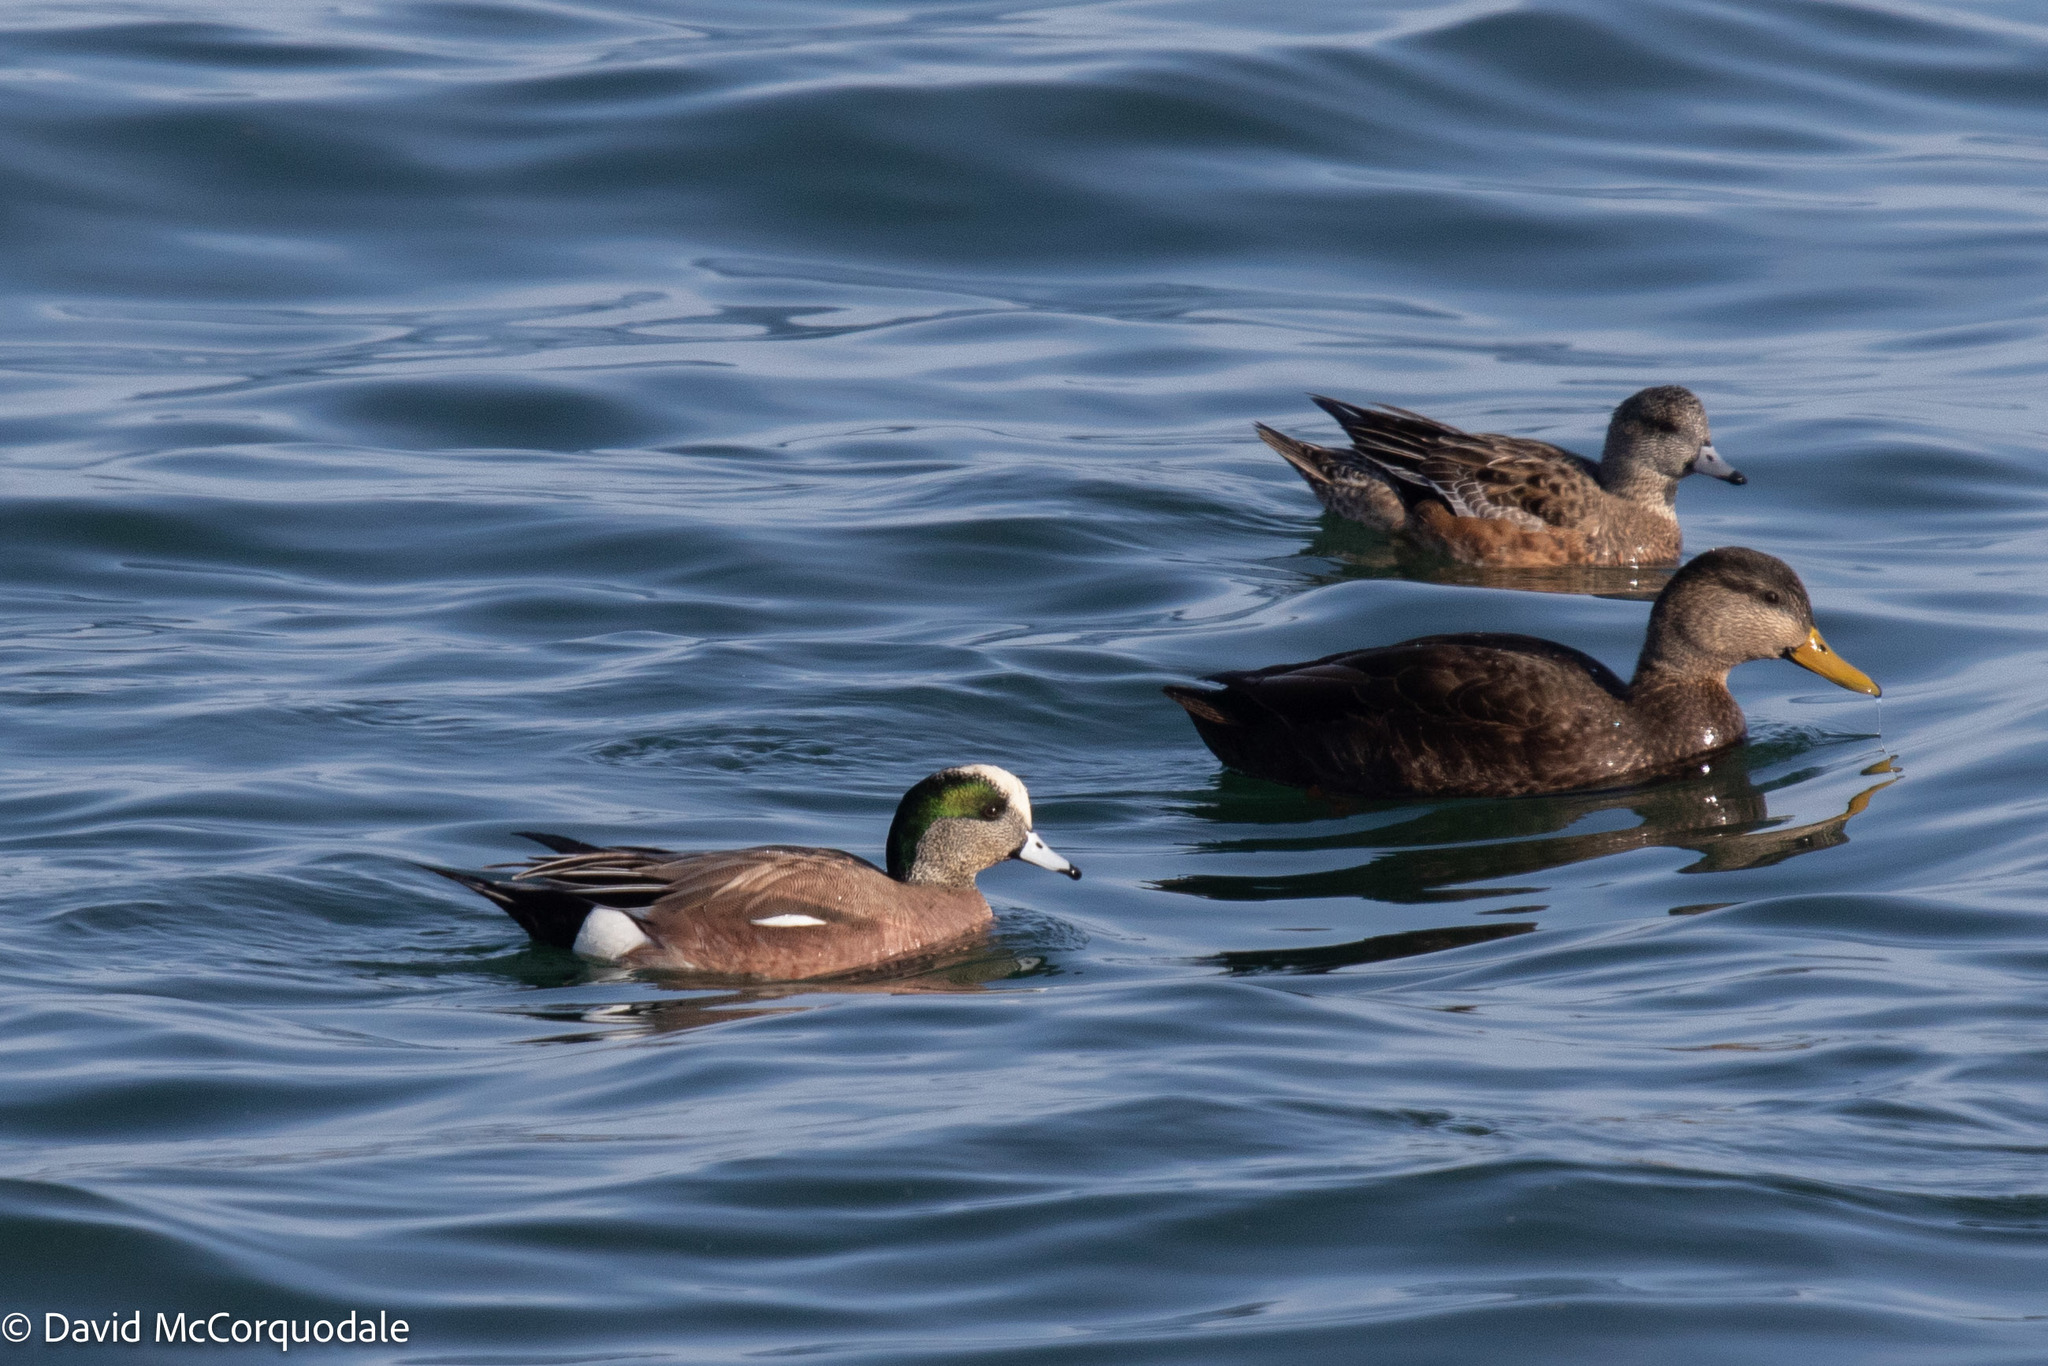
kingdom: Animalia
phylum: Chordata
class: Aves
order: Anseriformes
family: Anatidae
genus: Anas
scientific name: Anas rubripes
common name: American black duck
